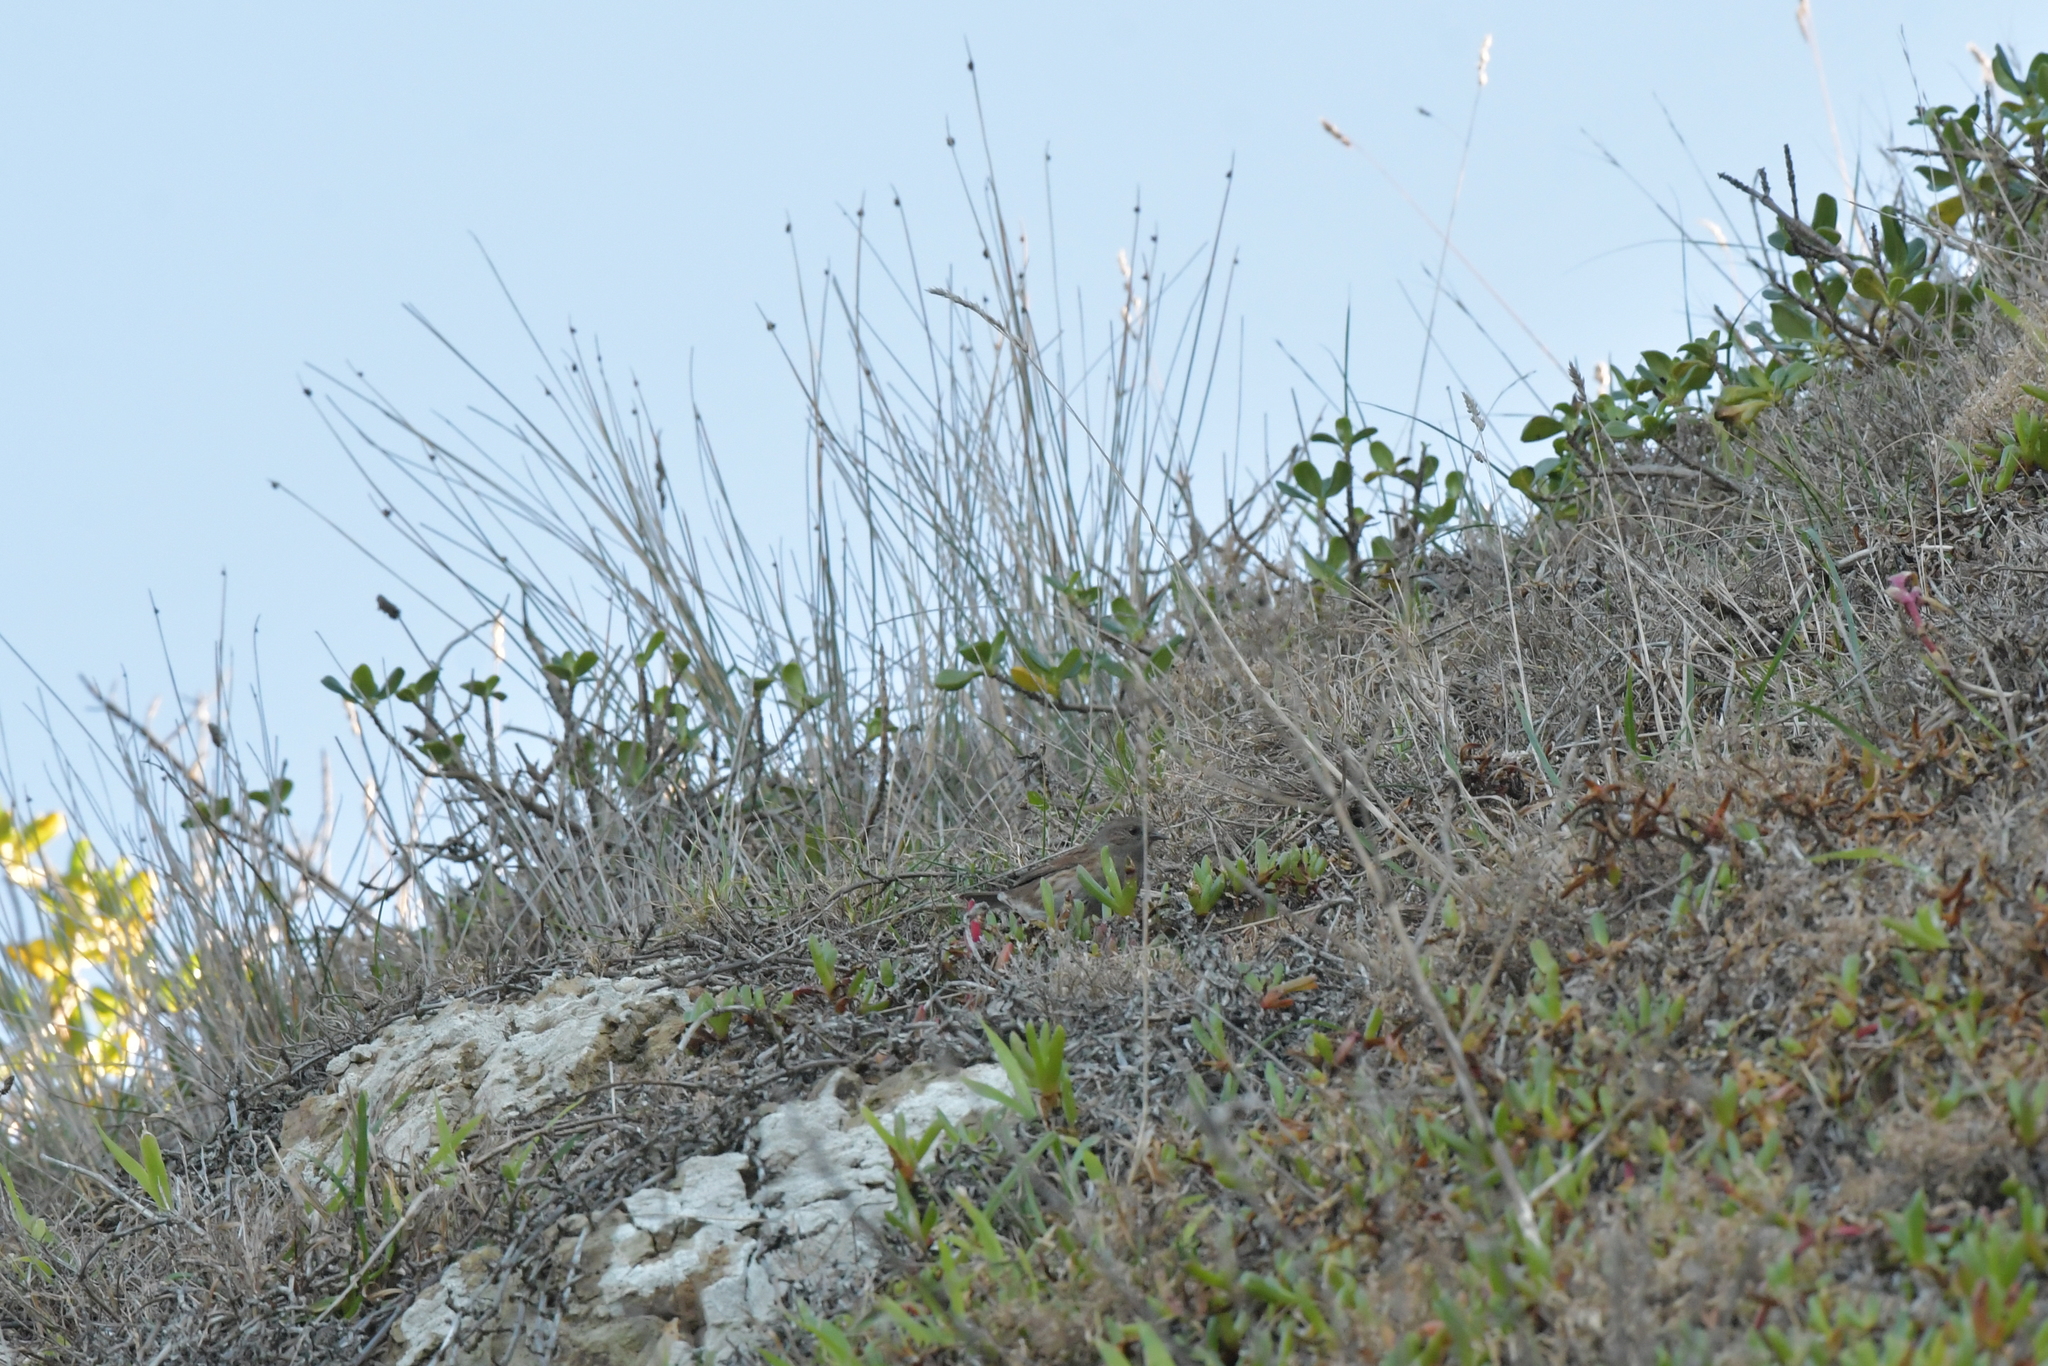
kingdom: Animalia
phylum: Chordata
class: Aves
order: Passeriformes
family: Prunellidae
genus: Prunella
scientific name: Prunella modularis
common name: Dunnock
